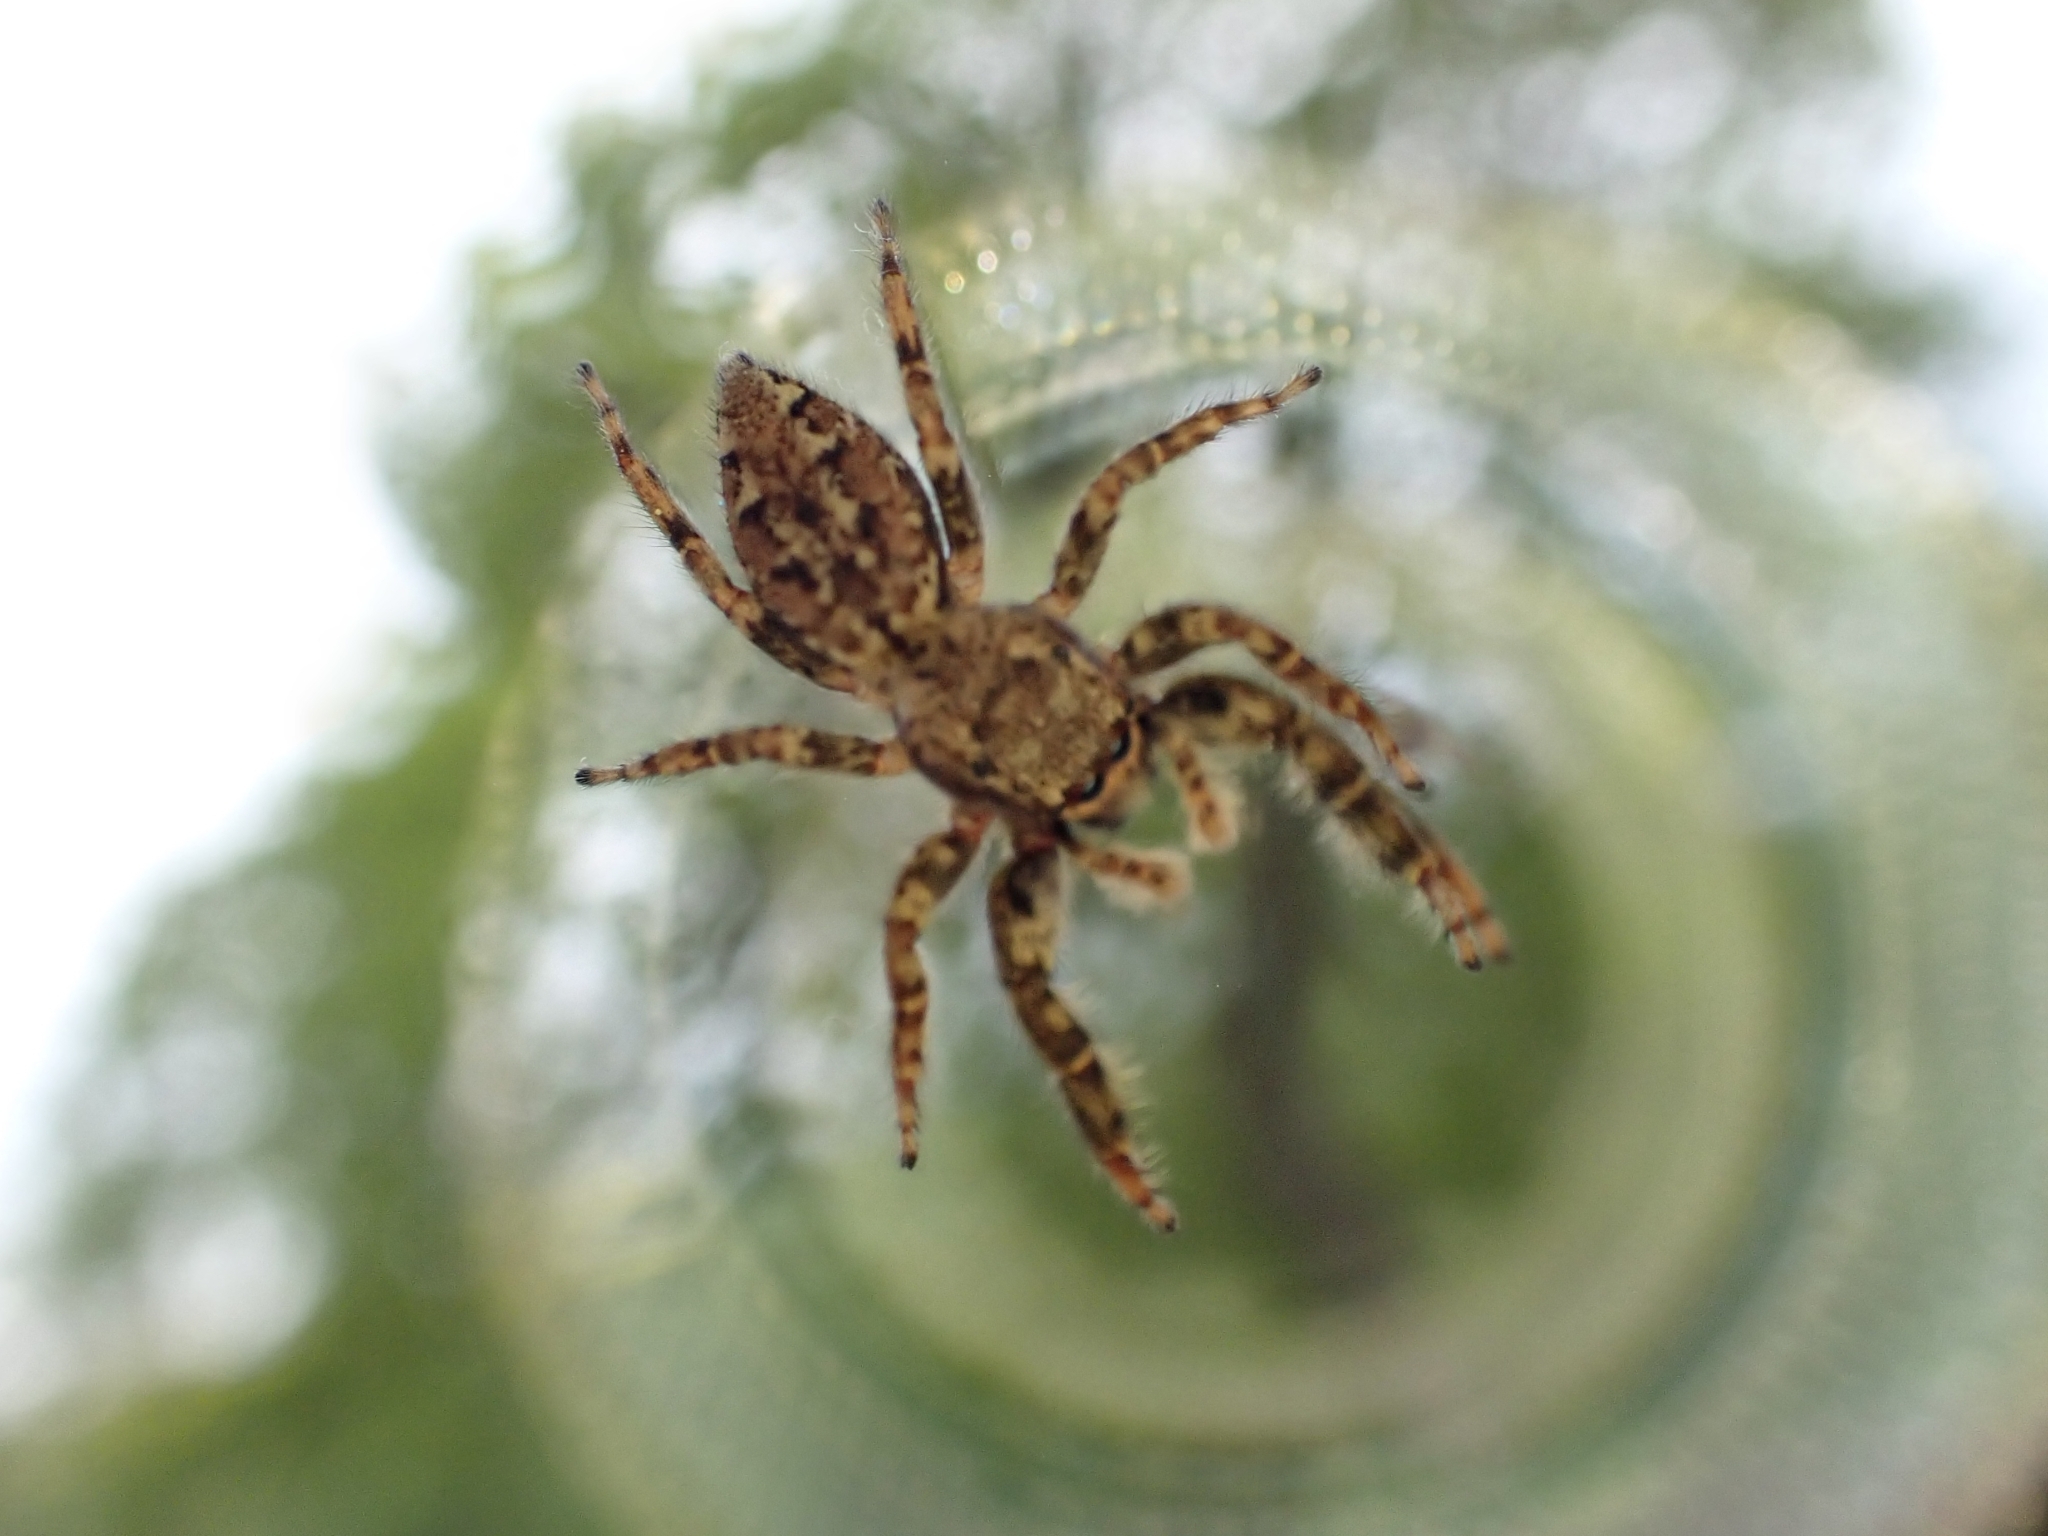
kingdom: Animalia
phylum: Arthropoda
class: Arachnida
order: Araneae
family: Salticidae
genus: Marpissa
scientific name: Marpissa muscosa
